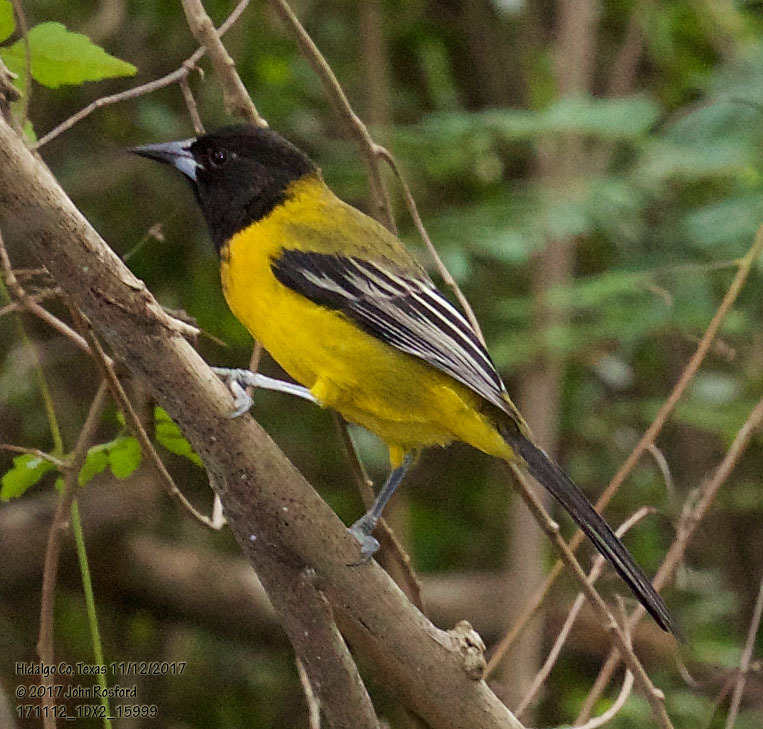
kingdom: Animalia
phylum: Chordata
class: Aves
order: Passeriformes
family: Icteridae
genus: Icterus
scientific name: Icterus graduacauda
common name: Audubon's oriole
